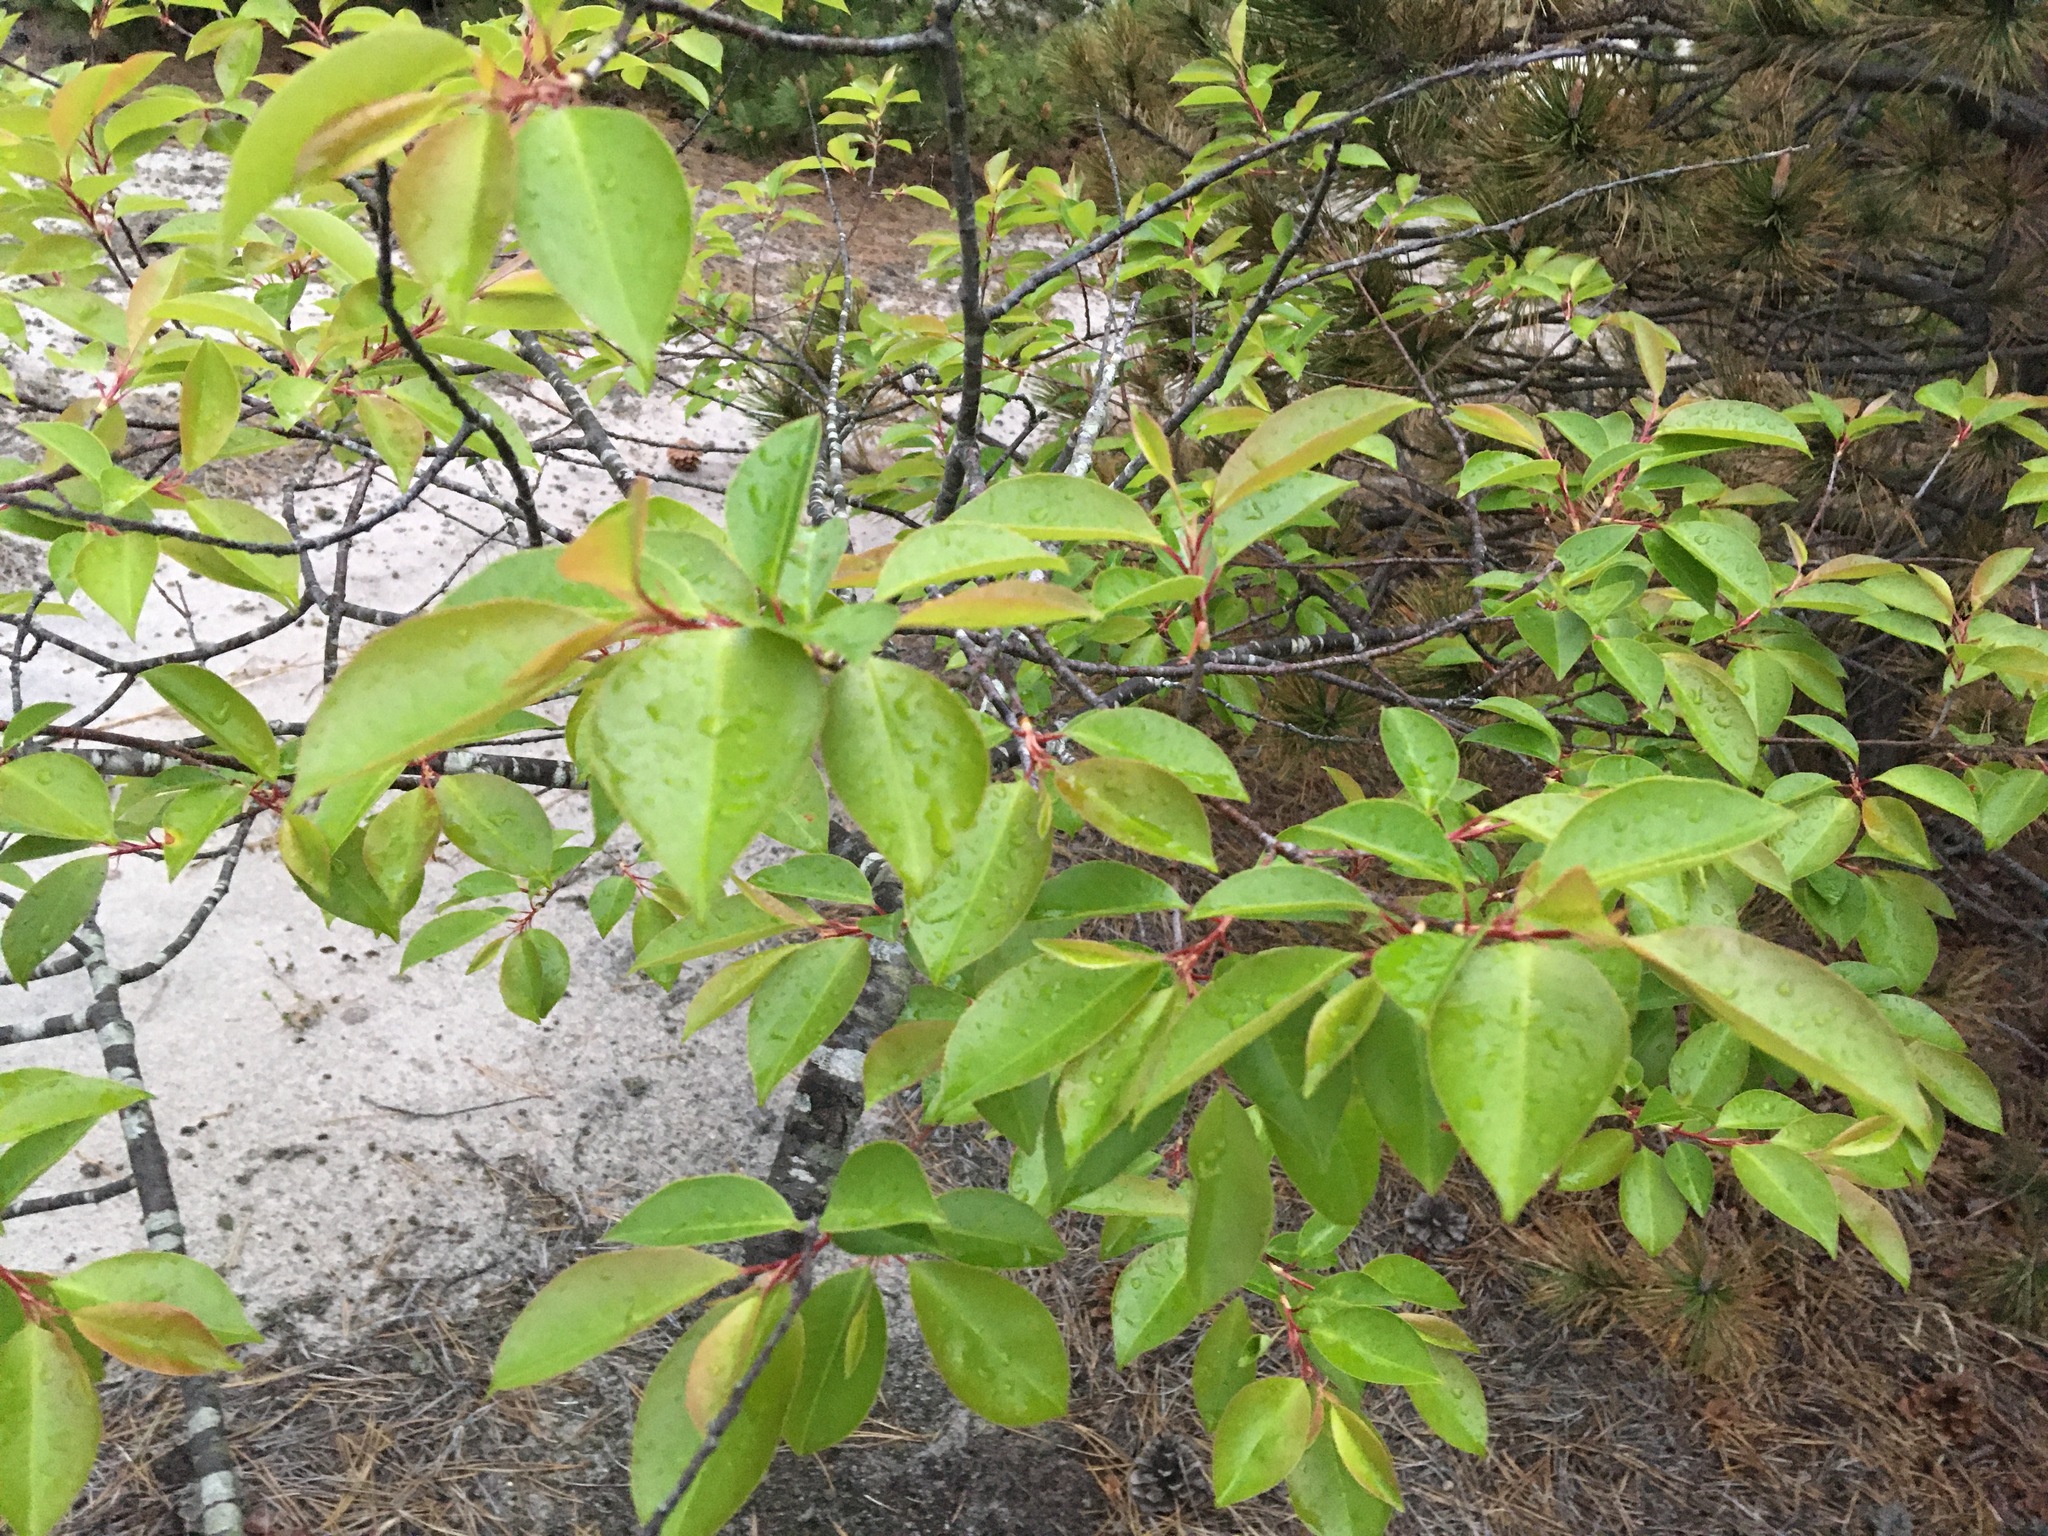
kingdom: Plantae
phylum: Tracheophyta
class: Magnoliopsida
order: Rosales
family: Rosaceae
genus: Prunus
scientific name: Prunus maritima
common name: Beach plum
